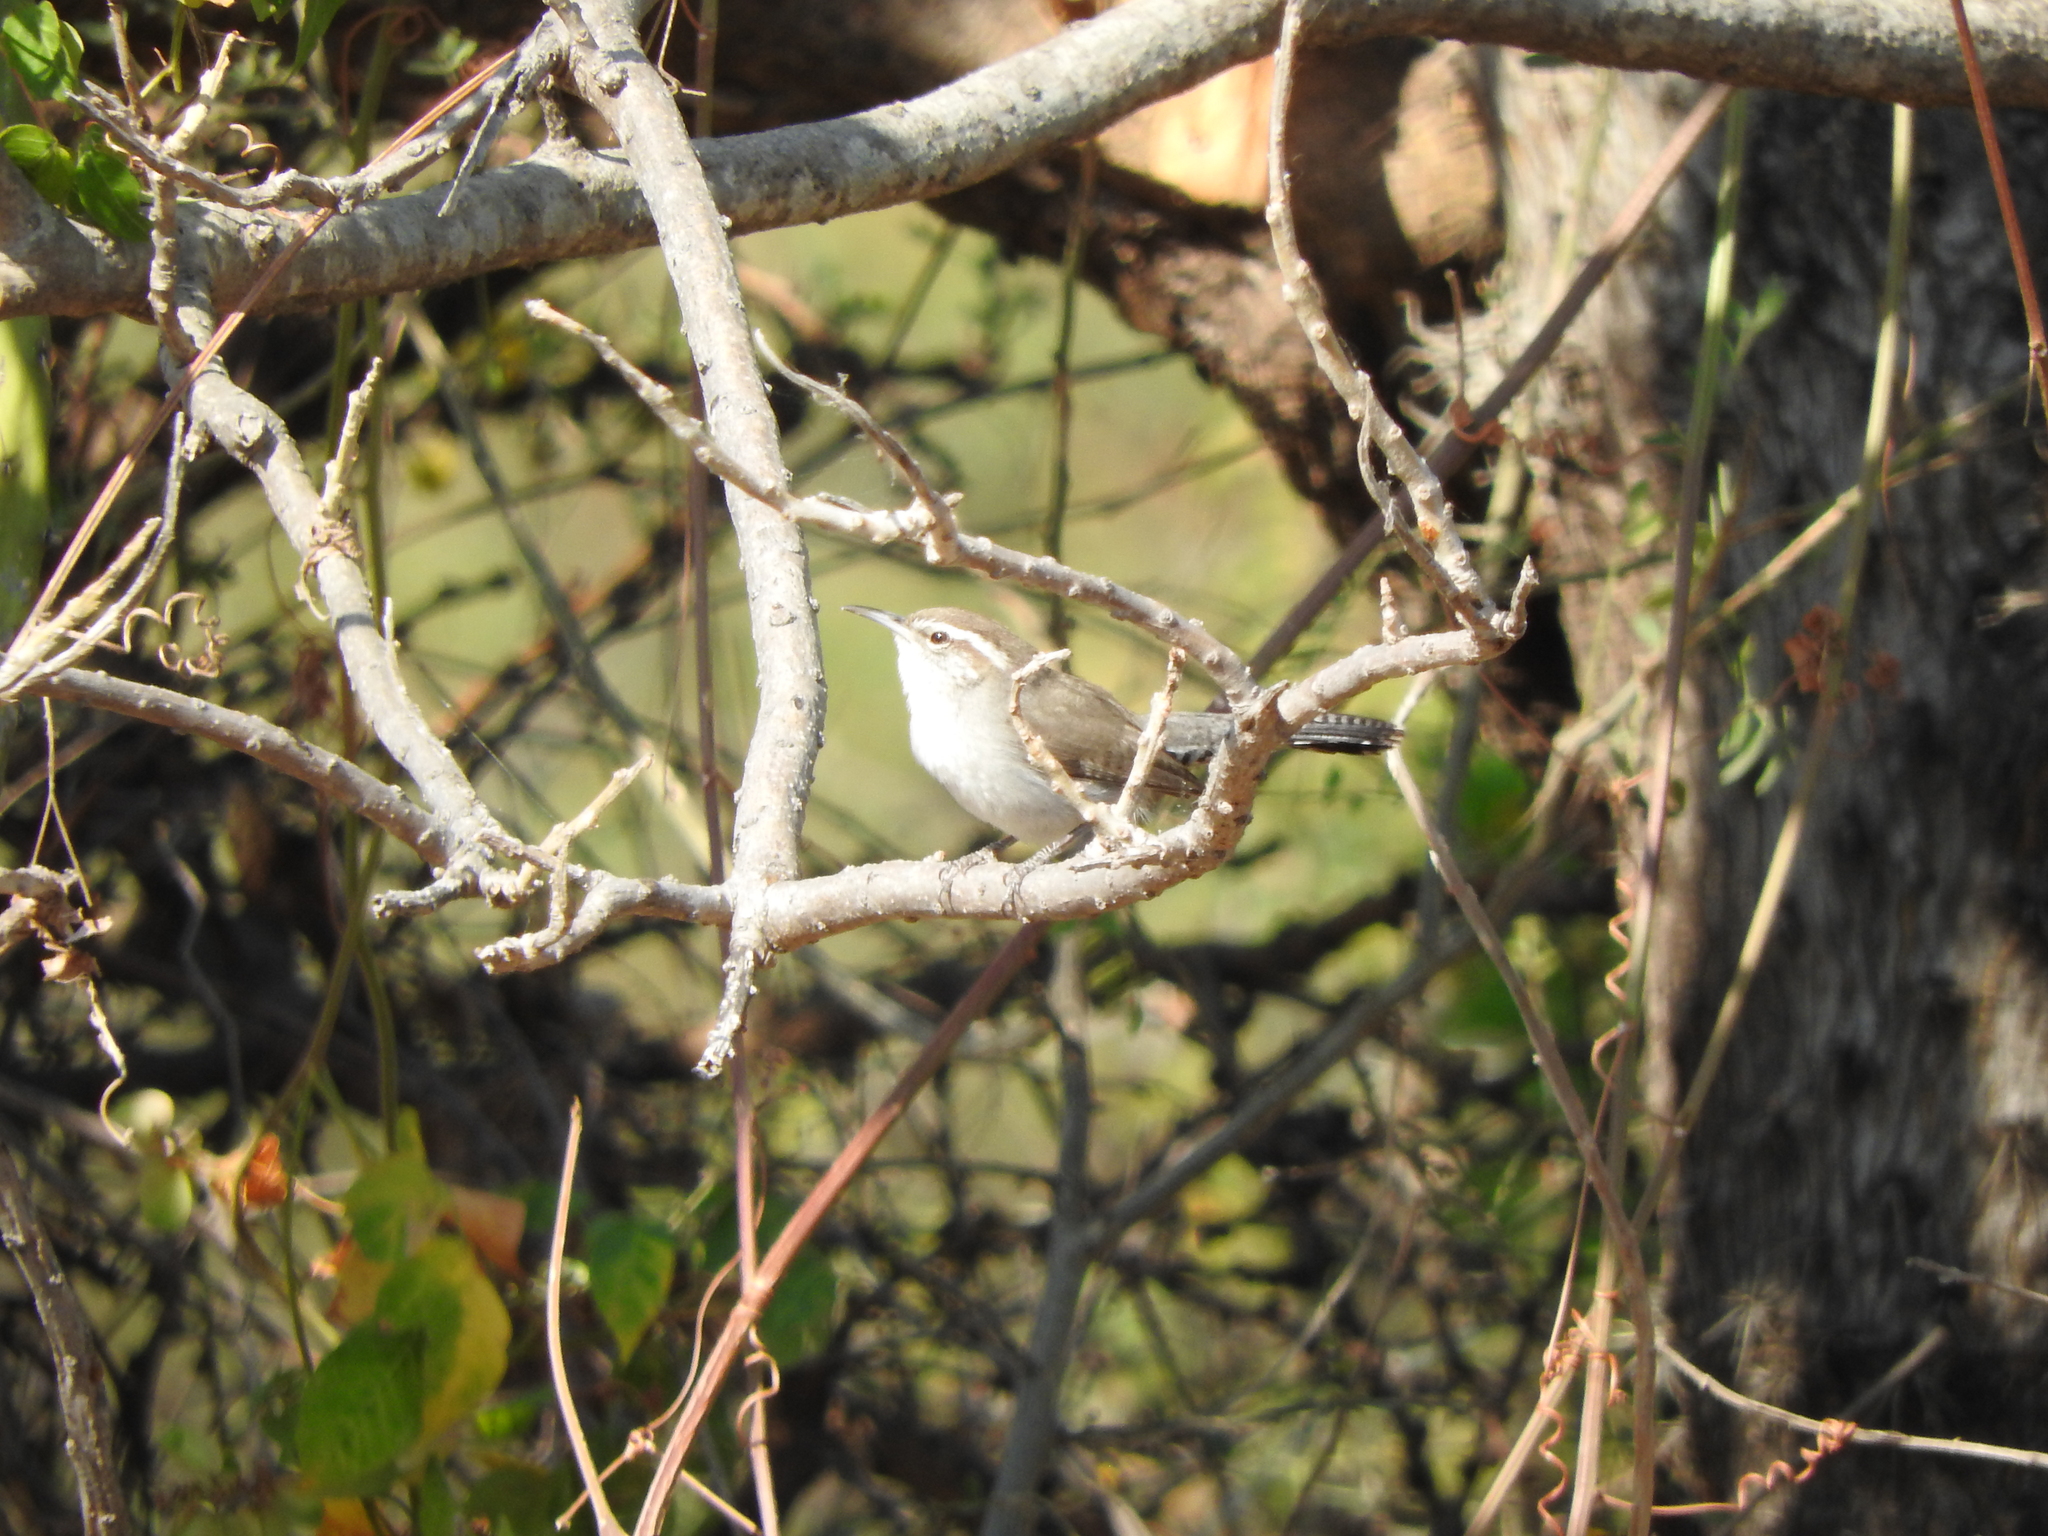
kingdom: Animalia
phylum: Chordata
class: Aves
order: Passeriformes
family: Troglodytidae
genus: Thryomanes
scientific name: Thryomanes bewickii
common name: Bewick's wren
